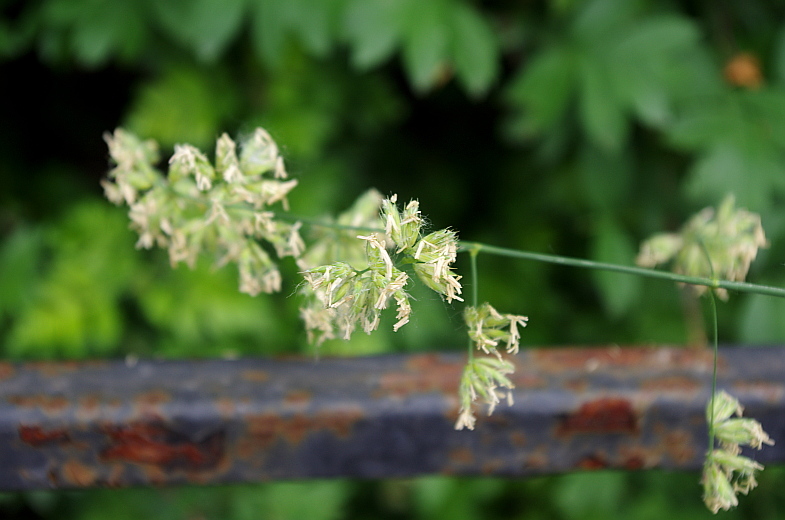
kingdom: Plantae
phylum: Tracheophyta
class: Liliopsida
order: Poales
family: Poaceae
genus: Dactylis
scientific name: Dactylis glomerata
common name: Orchardgrass
